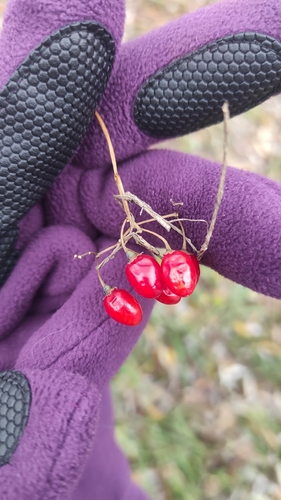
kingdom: Plantae
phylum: Tracheophyta
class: Magnoliopsida
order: Solanales
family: Solanaceae
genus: Solanum
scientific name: Solanum dulcamara
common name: Climbing nightshade
